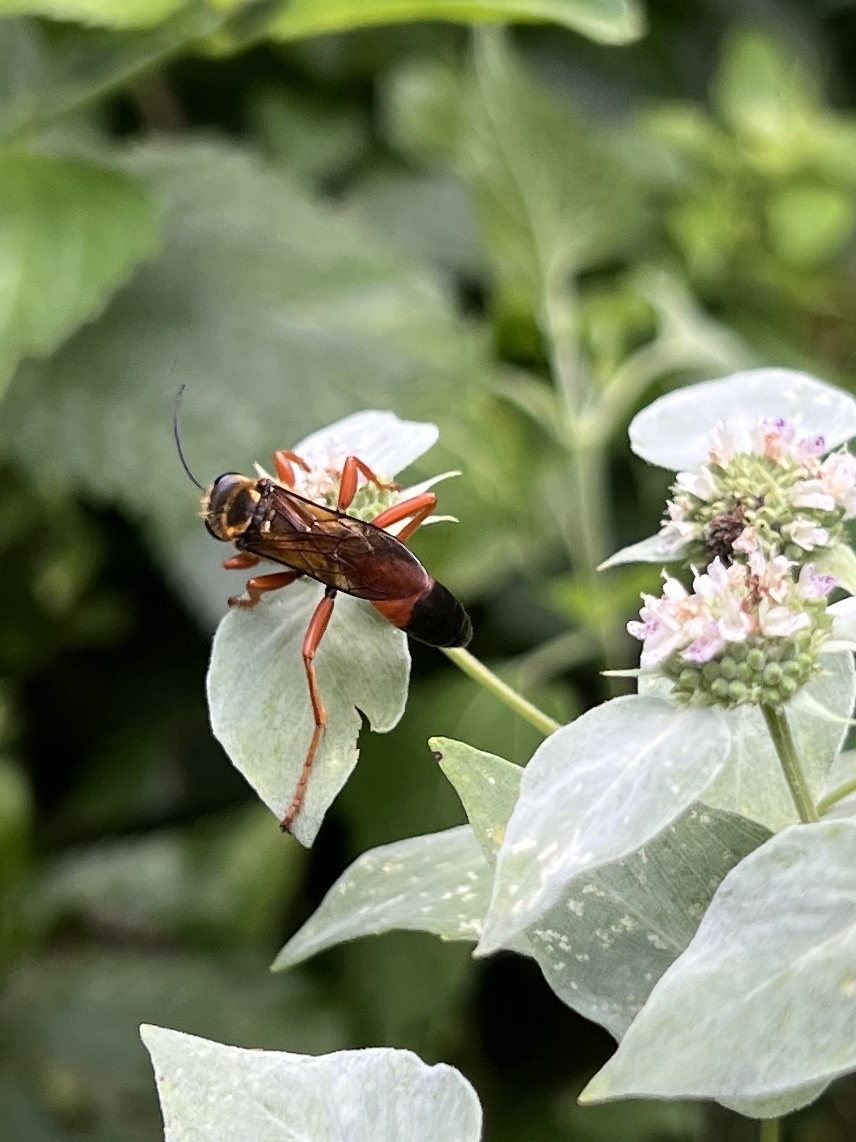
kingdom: Animalia
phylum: Arthropoda
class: Insecta
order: Hymenoptera
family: Sphecidae
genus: Sphex
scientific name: Sphex ichneumoneus
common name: Great golden digger wasp
